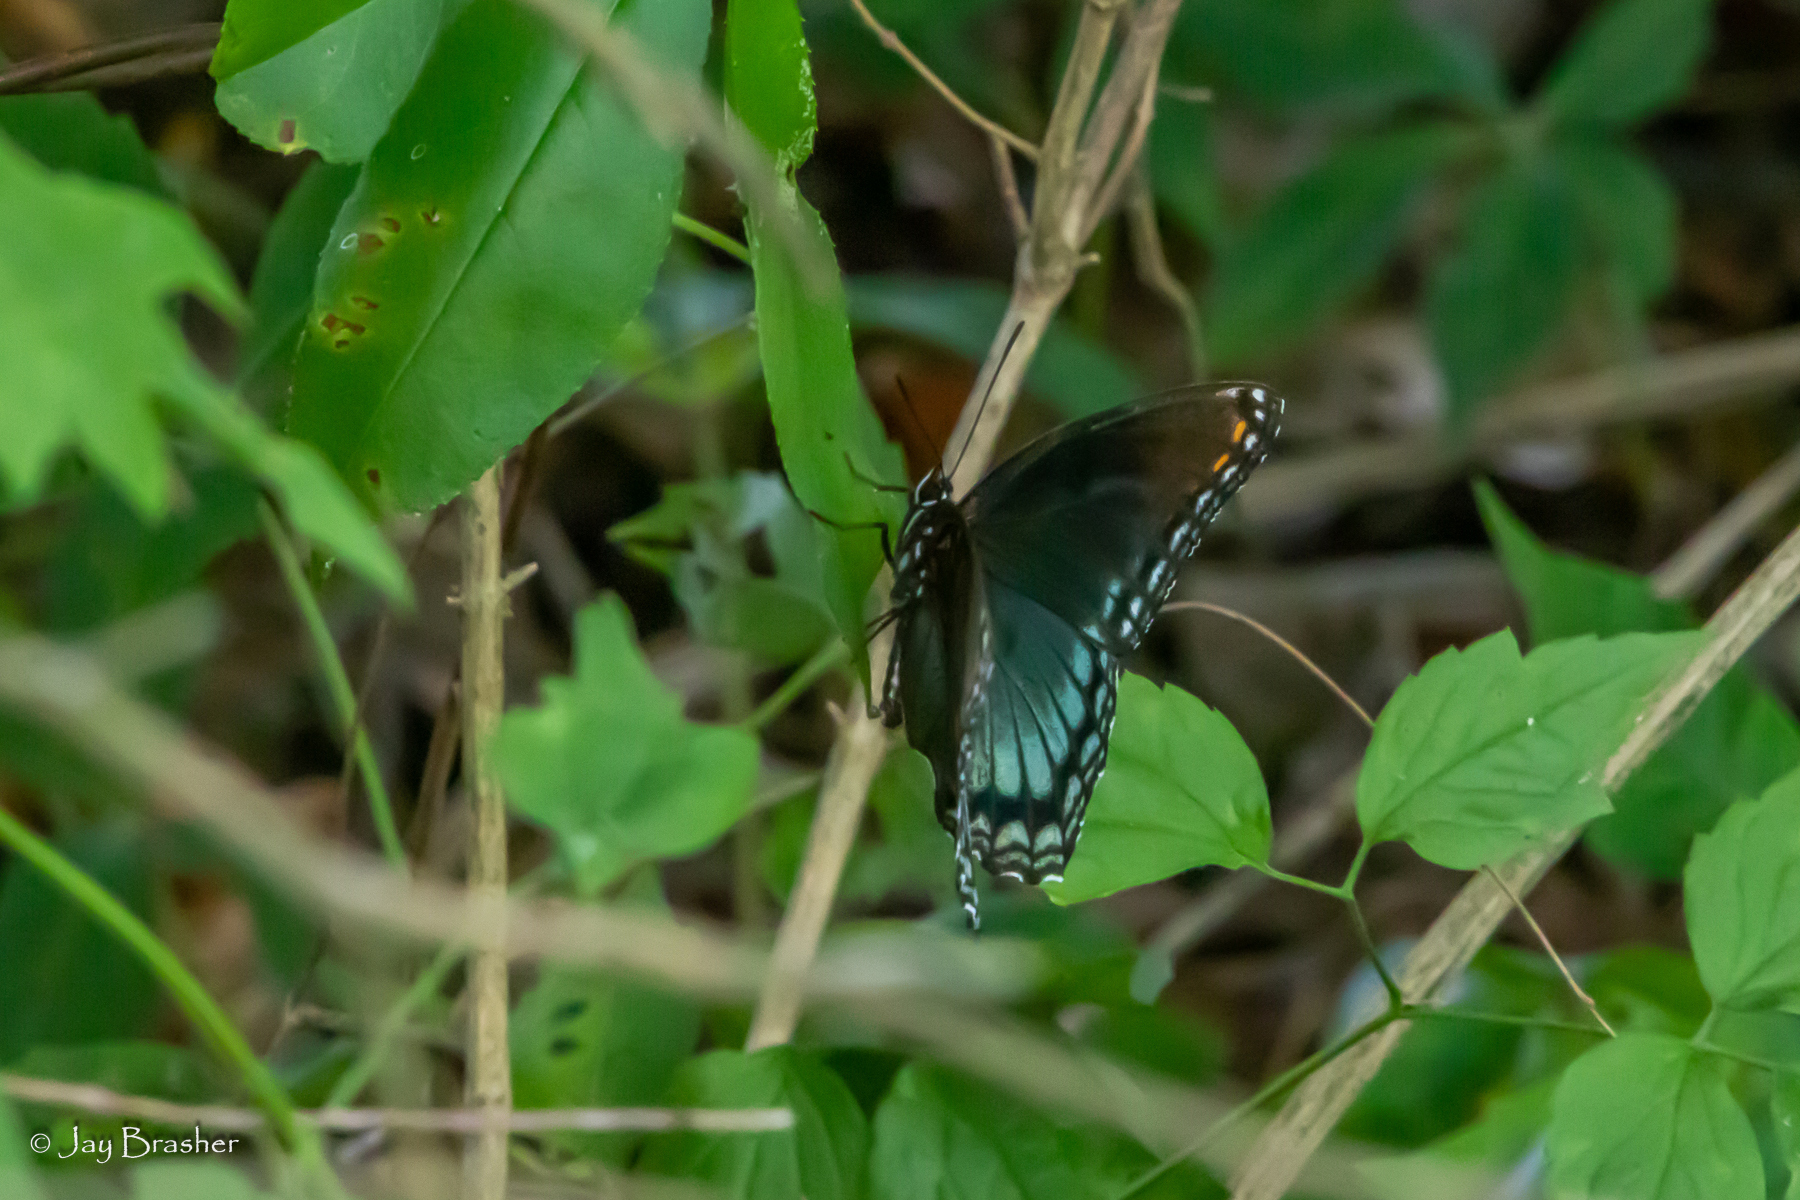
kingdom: Animalia
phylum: Arthropoda
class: Insecta
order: Lepidoptera
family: Nymphalidae
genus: Limenitis
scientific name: Limenitis astyanax
